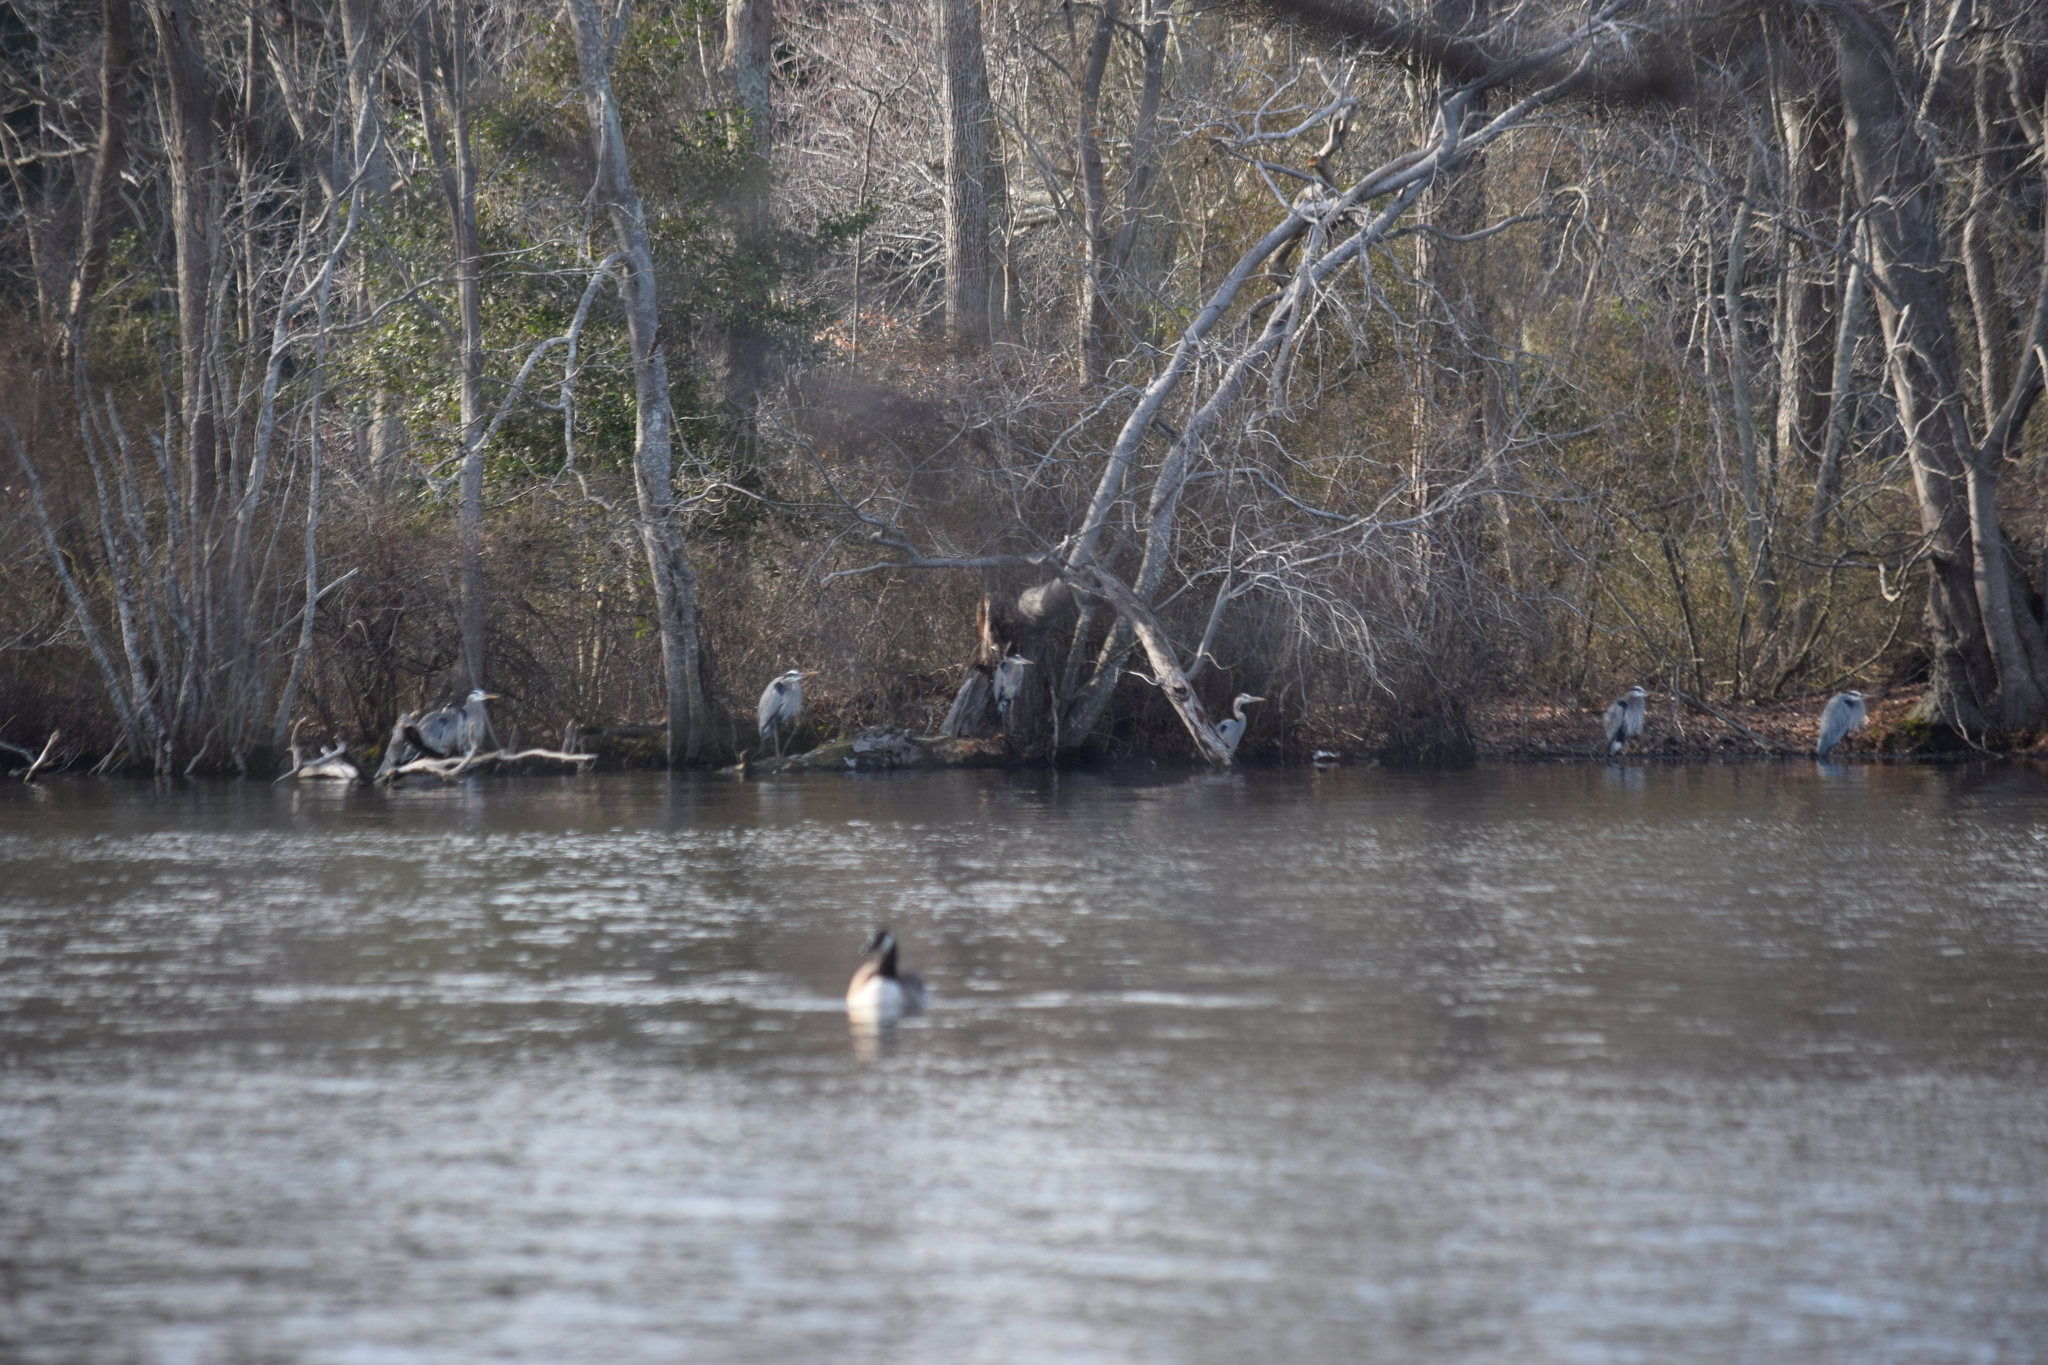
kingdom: Animalia
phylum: Chordata
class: Aves
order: Pelecaniformes
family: Ardeidae
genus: Ardea
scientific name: Ardea herodias
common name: Great blue heron
